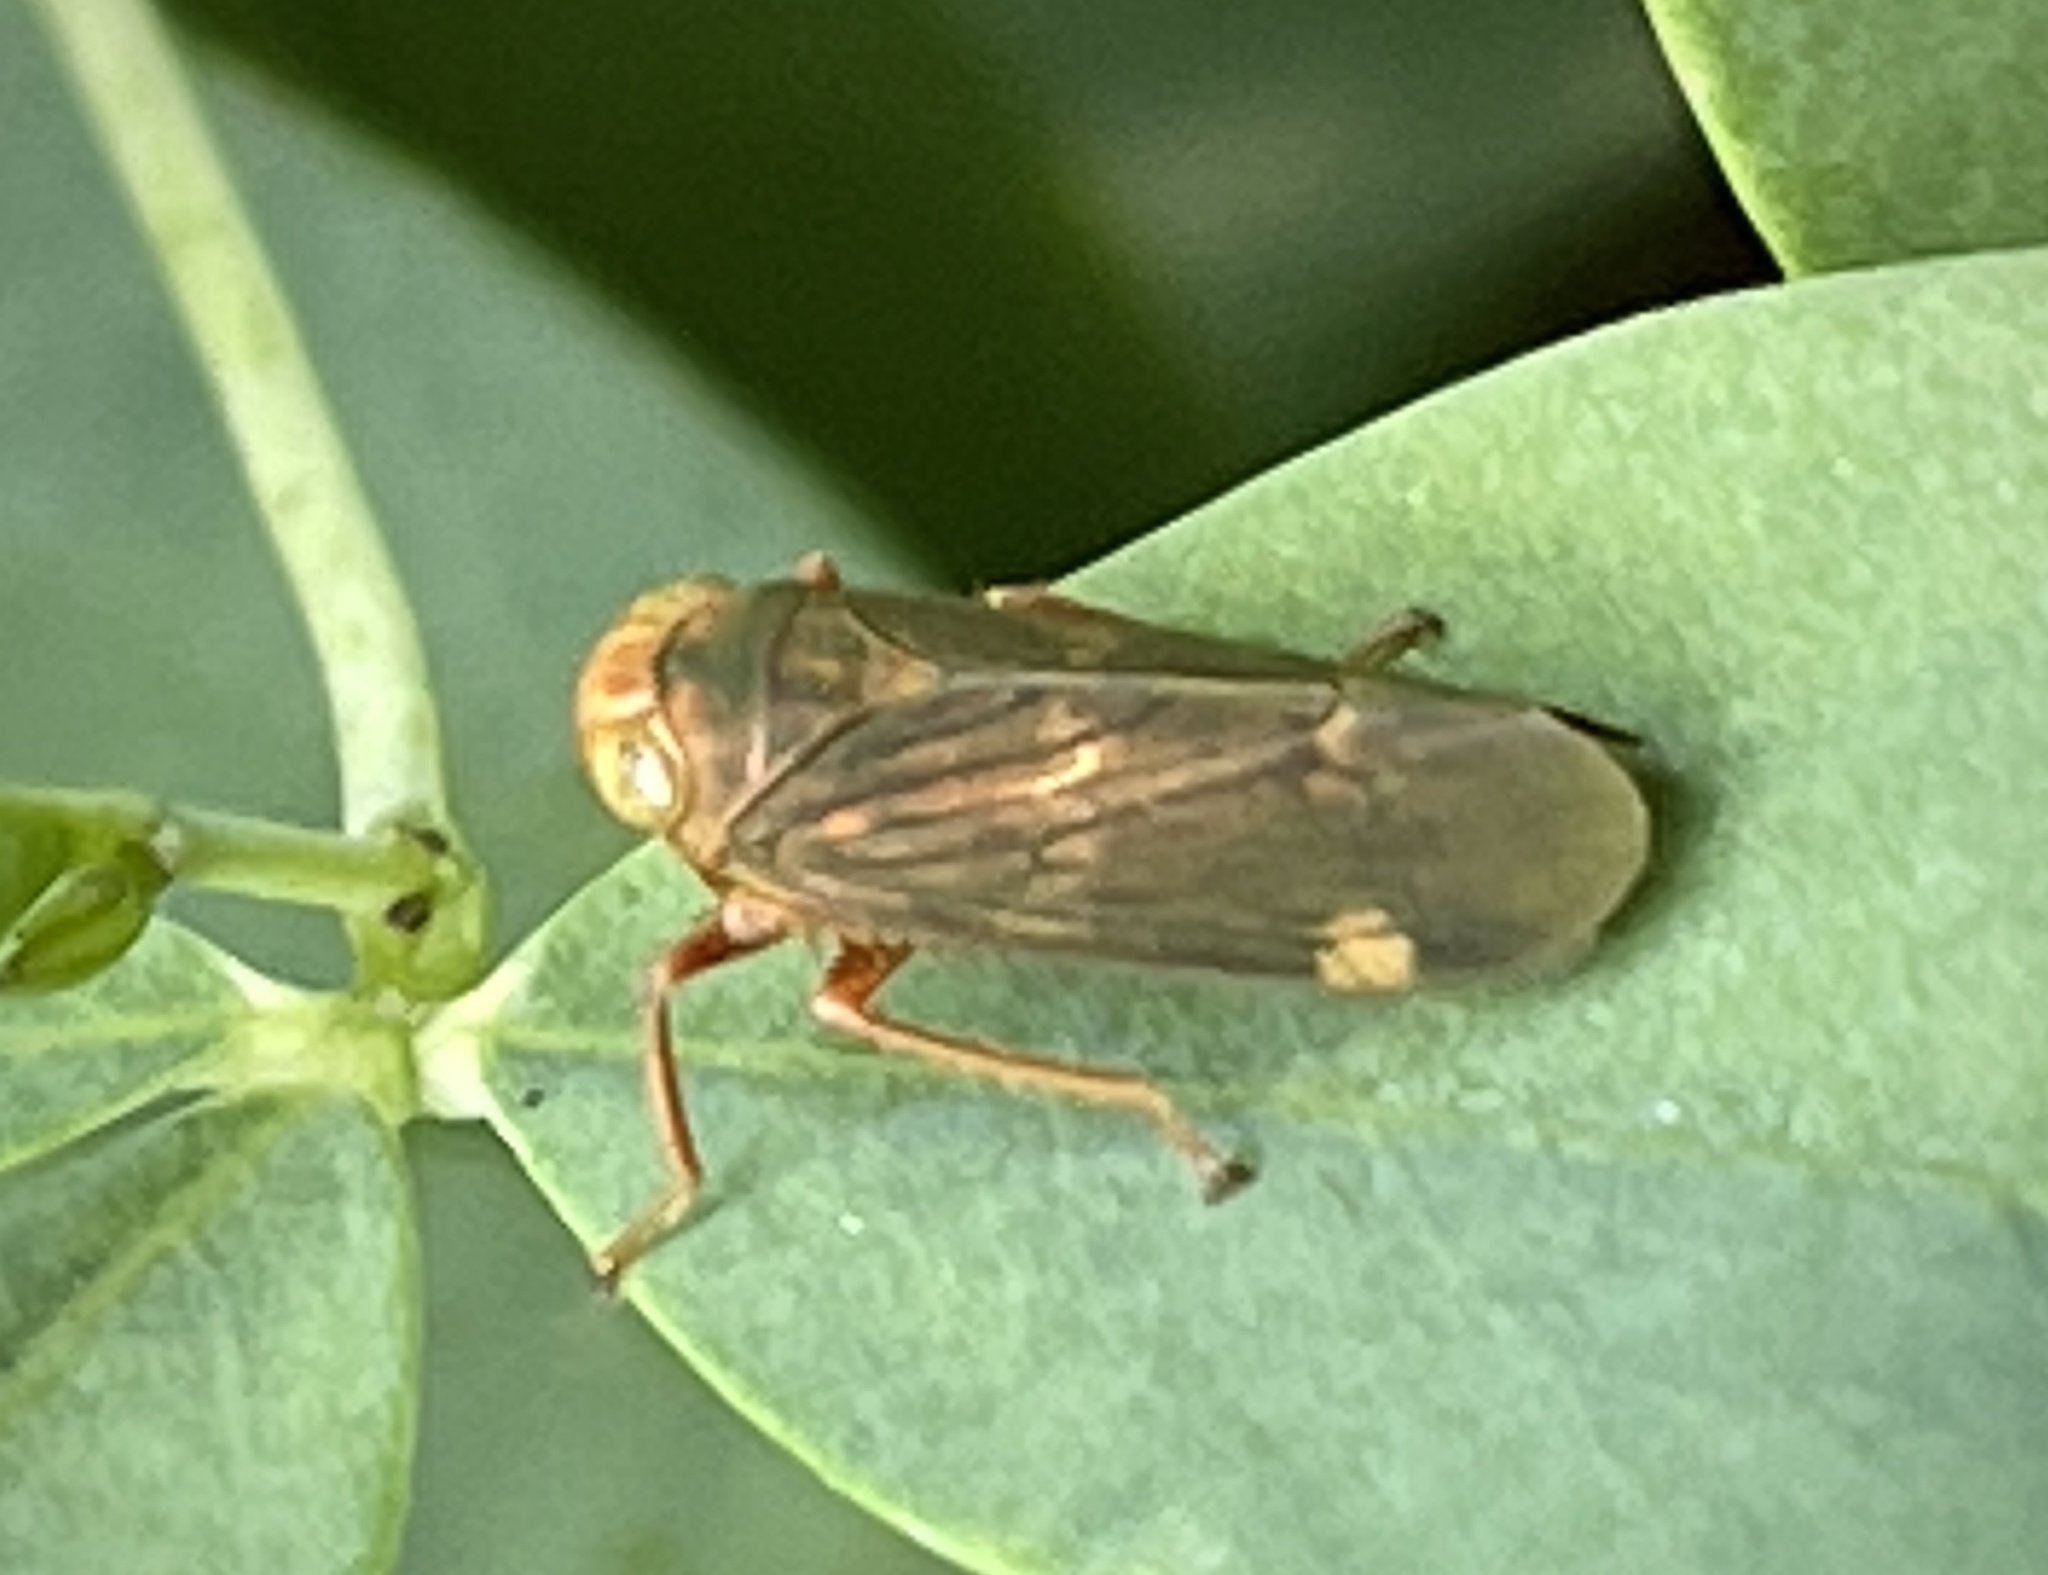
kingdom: Animalia
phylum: Arthropoda
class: Insecta
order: Hemiptera
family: Cicadellidae
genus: Jikradia
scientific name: Jikradia olitoria
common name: Coppery leafhopper
